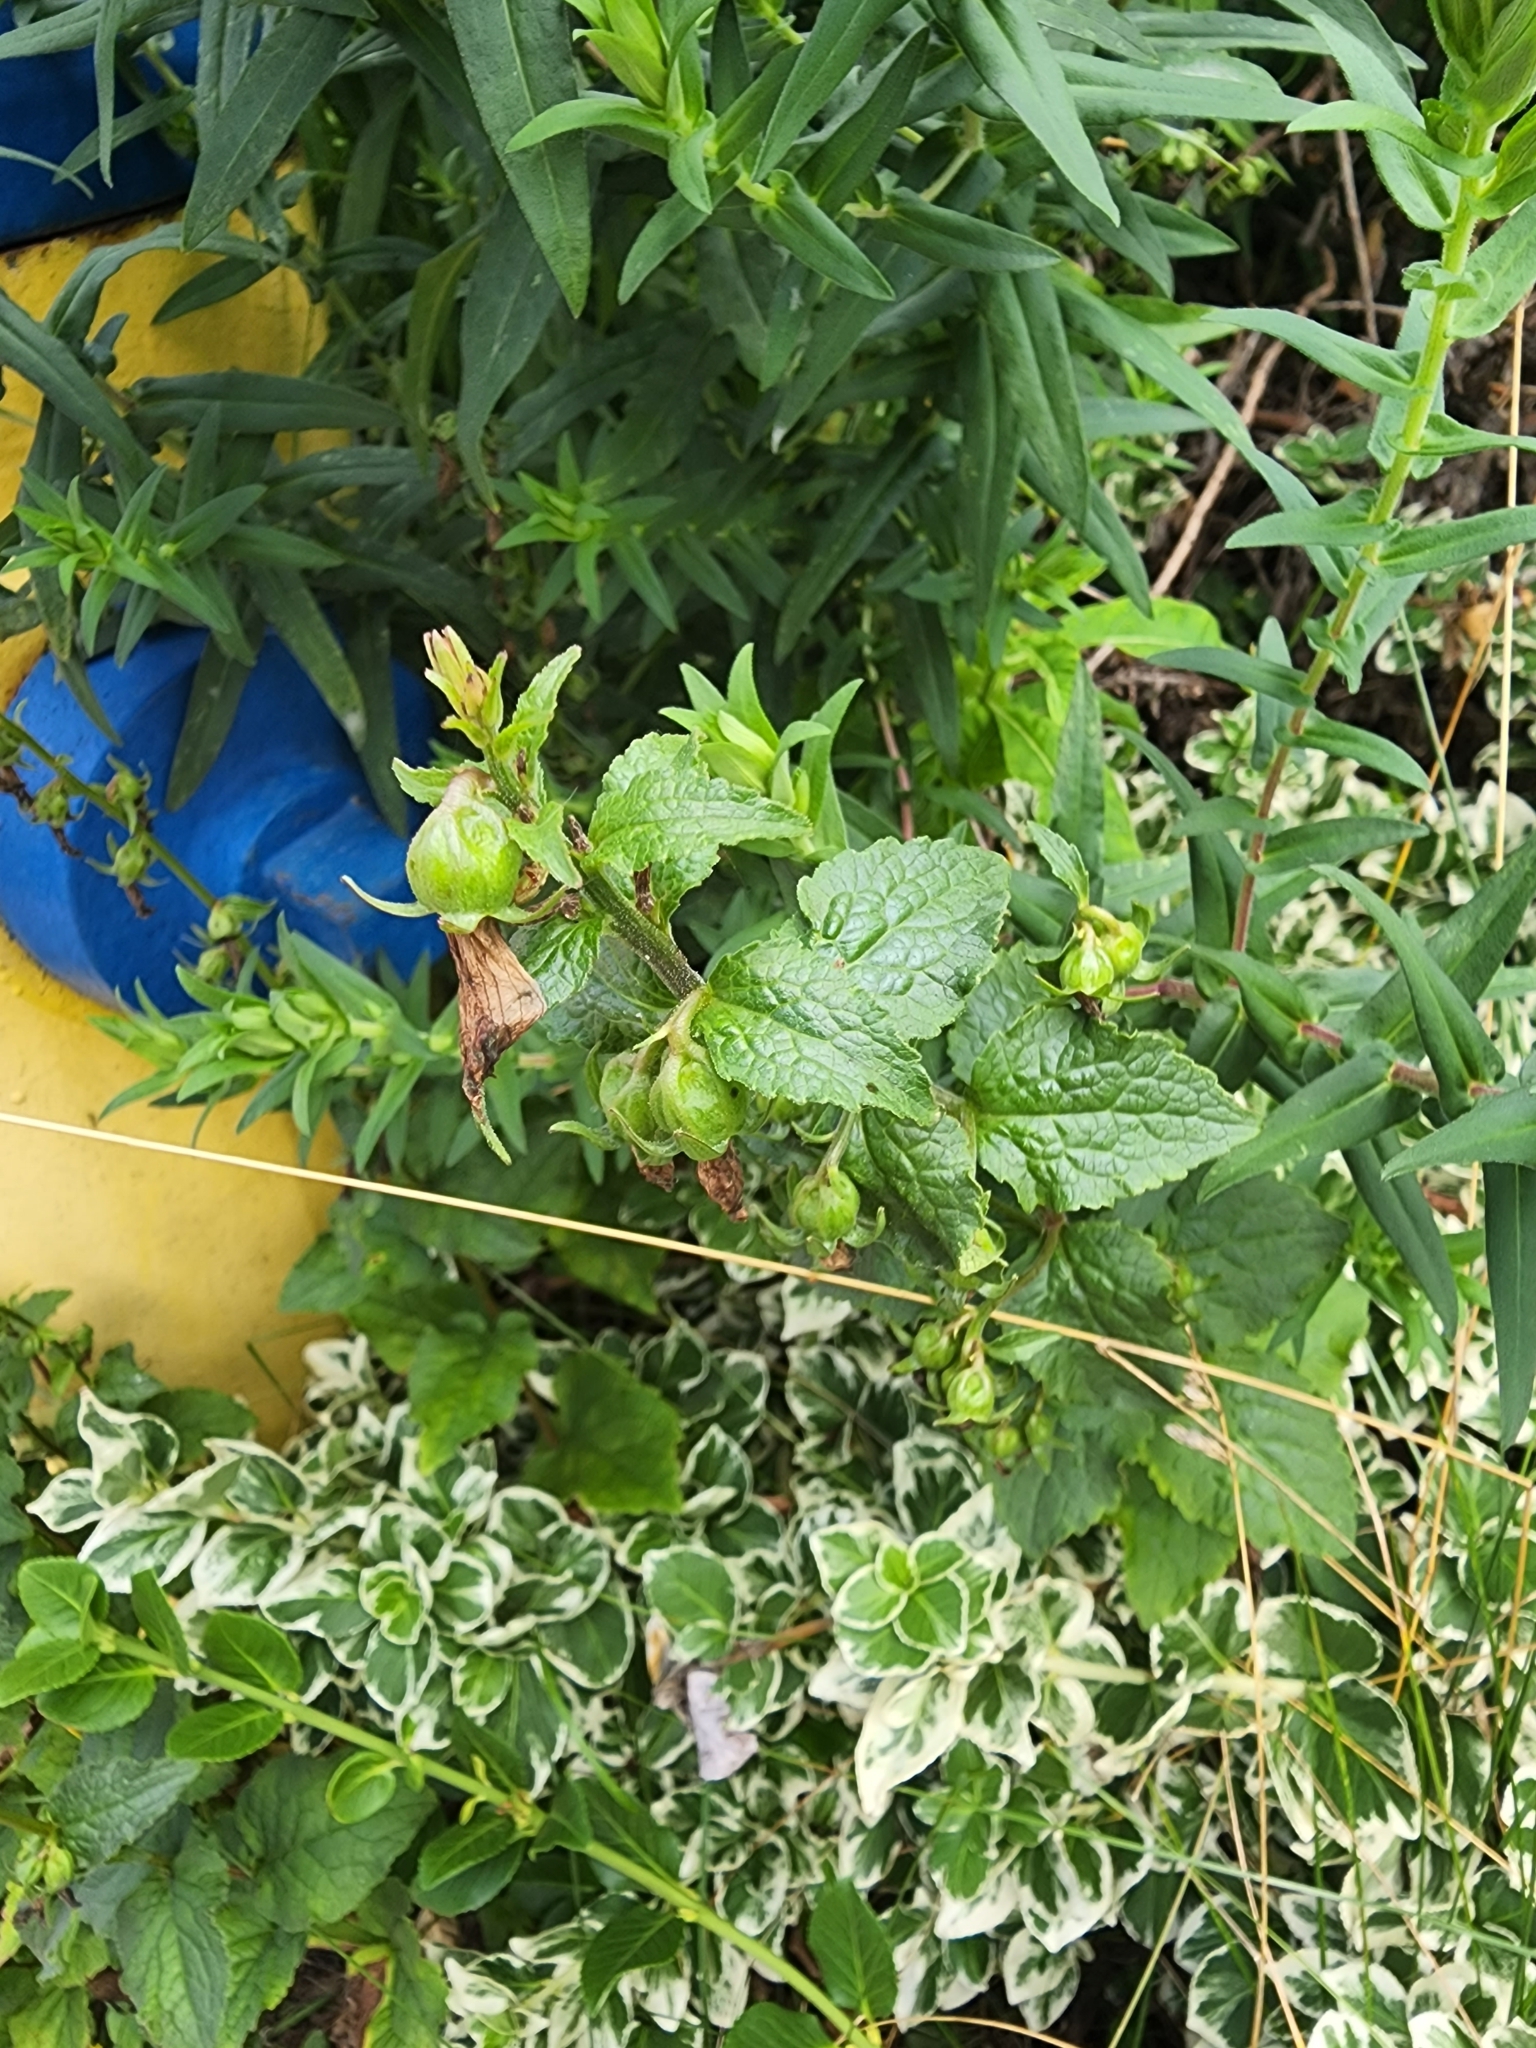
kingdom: Plantae
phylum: Tracheophyta
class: Magnoliopsida
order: Asterales
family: Campanulaceae
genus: Campanula
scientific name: Campanula rapunculoides
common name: Creeping bellflower
